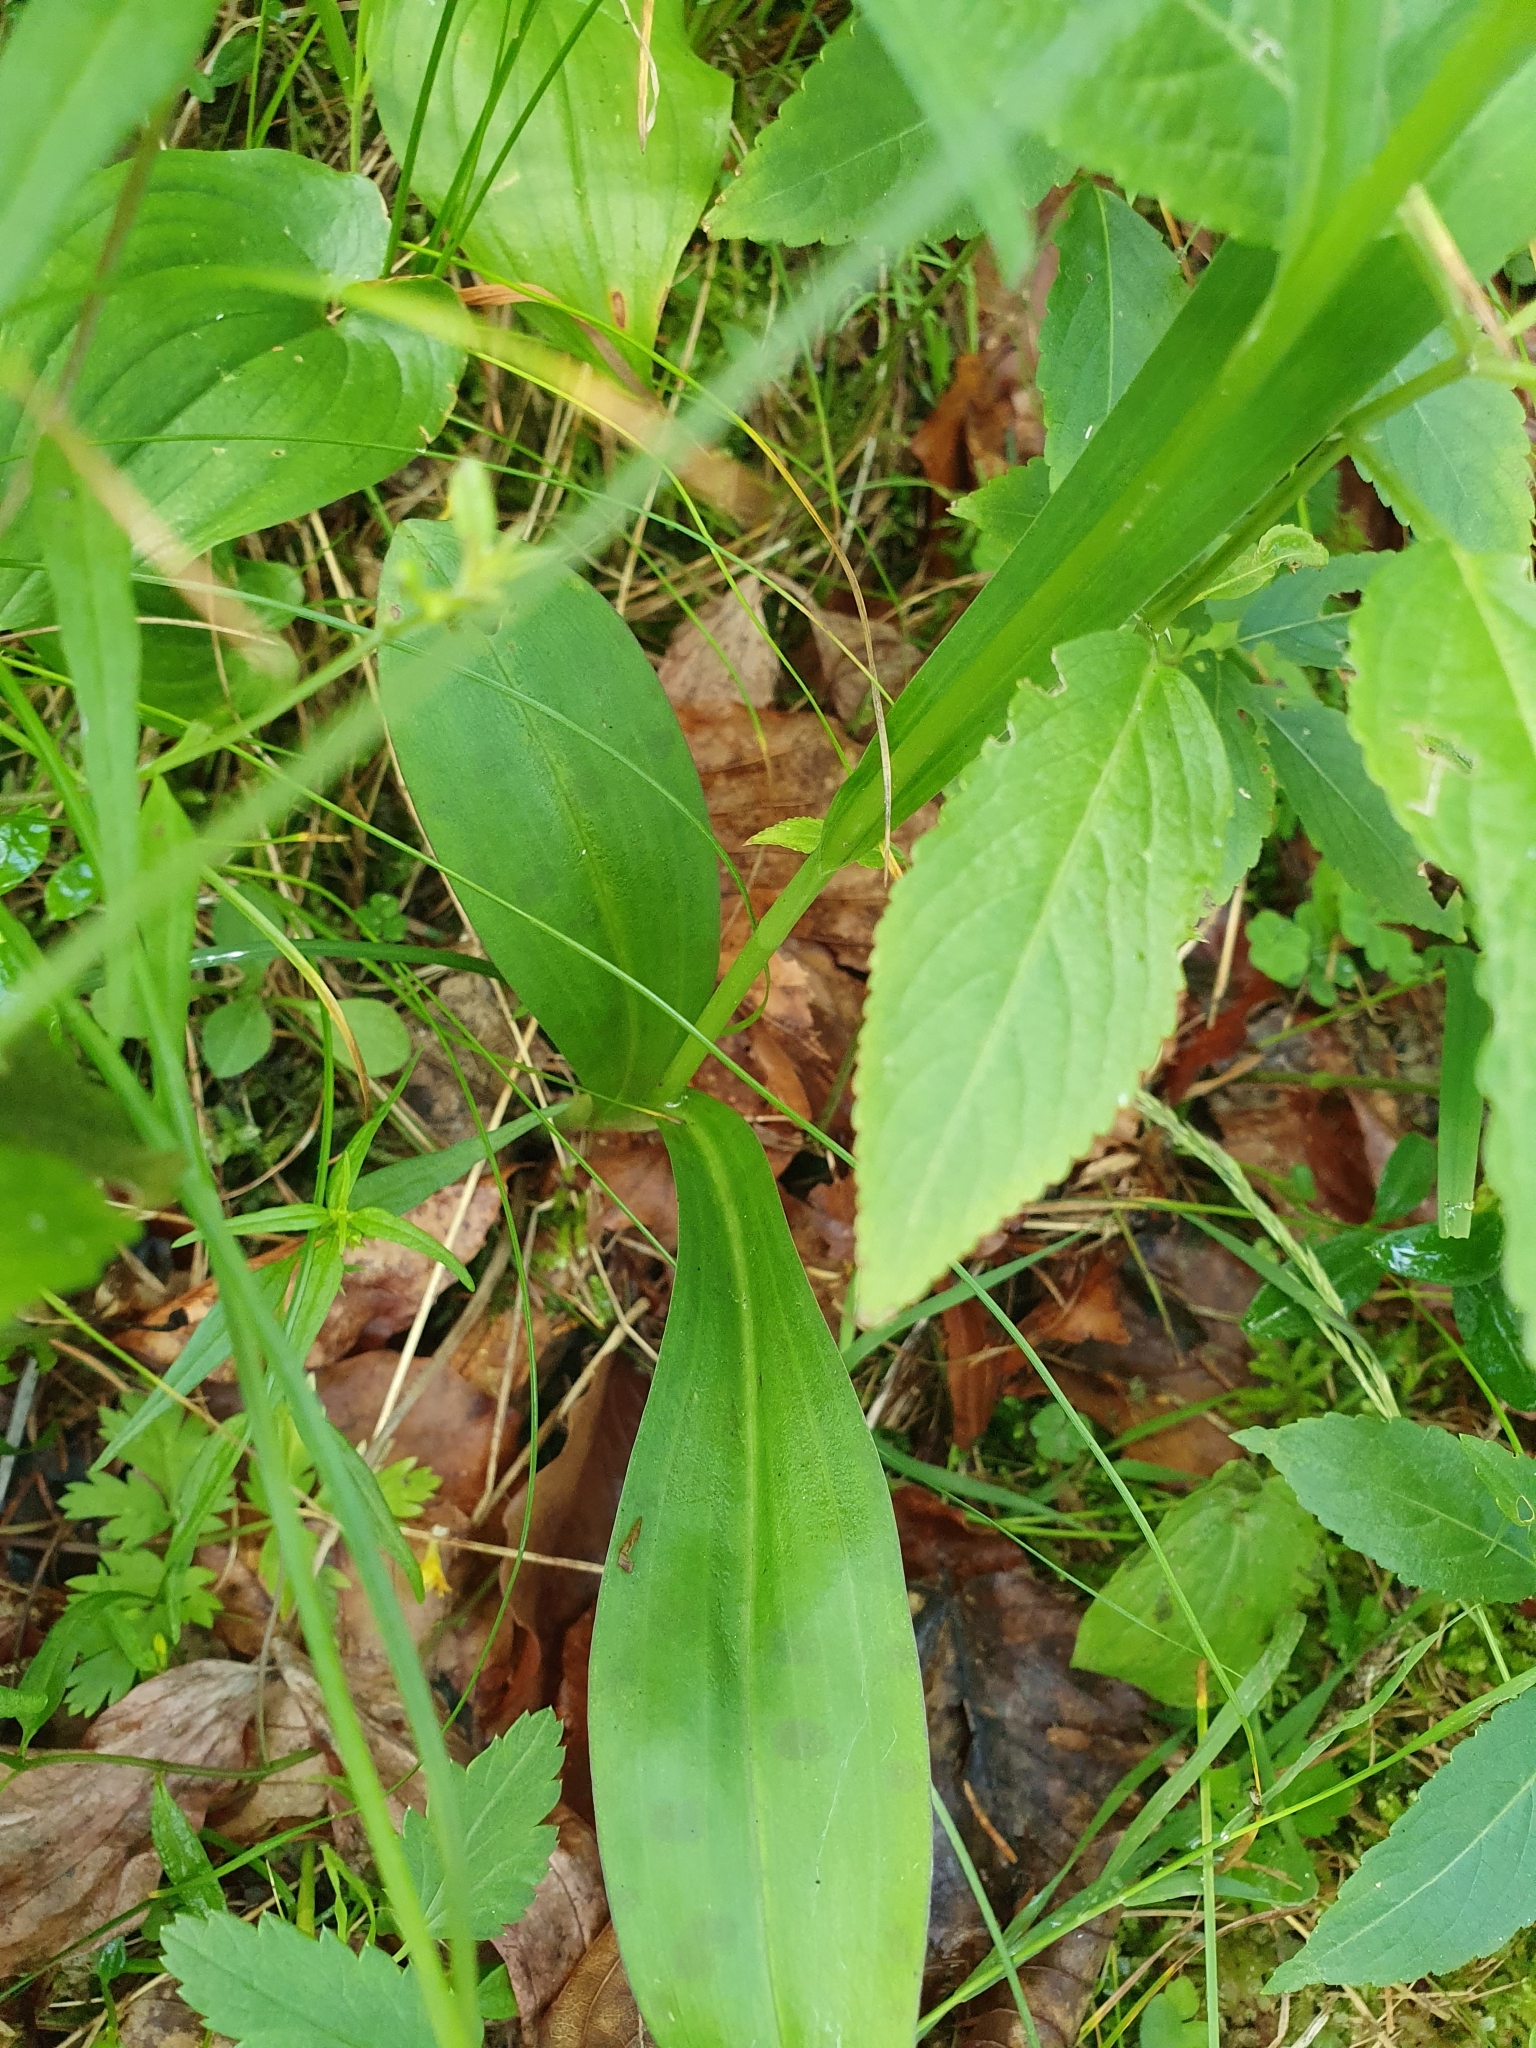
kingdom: Plantae
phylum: Tracheophyta
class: Liliopsida
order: Asparagales
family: Orchidaceae
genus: Dactylorhiza
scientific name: Dactylorhiza maculata
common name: Heath spotted-orchid
